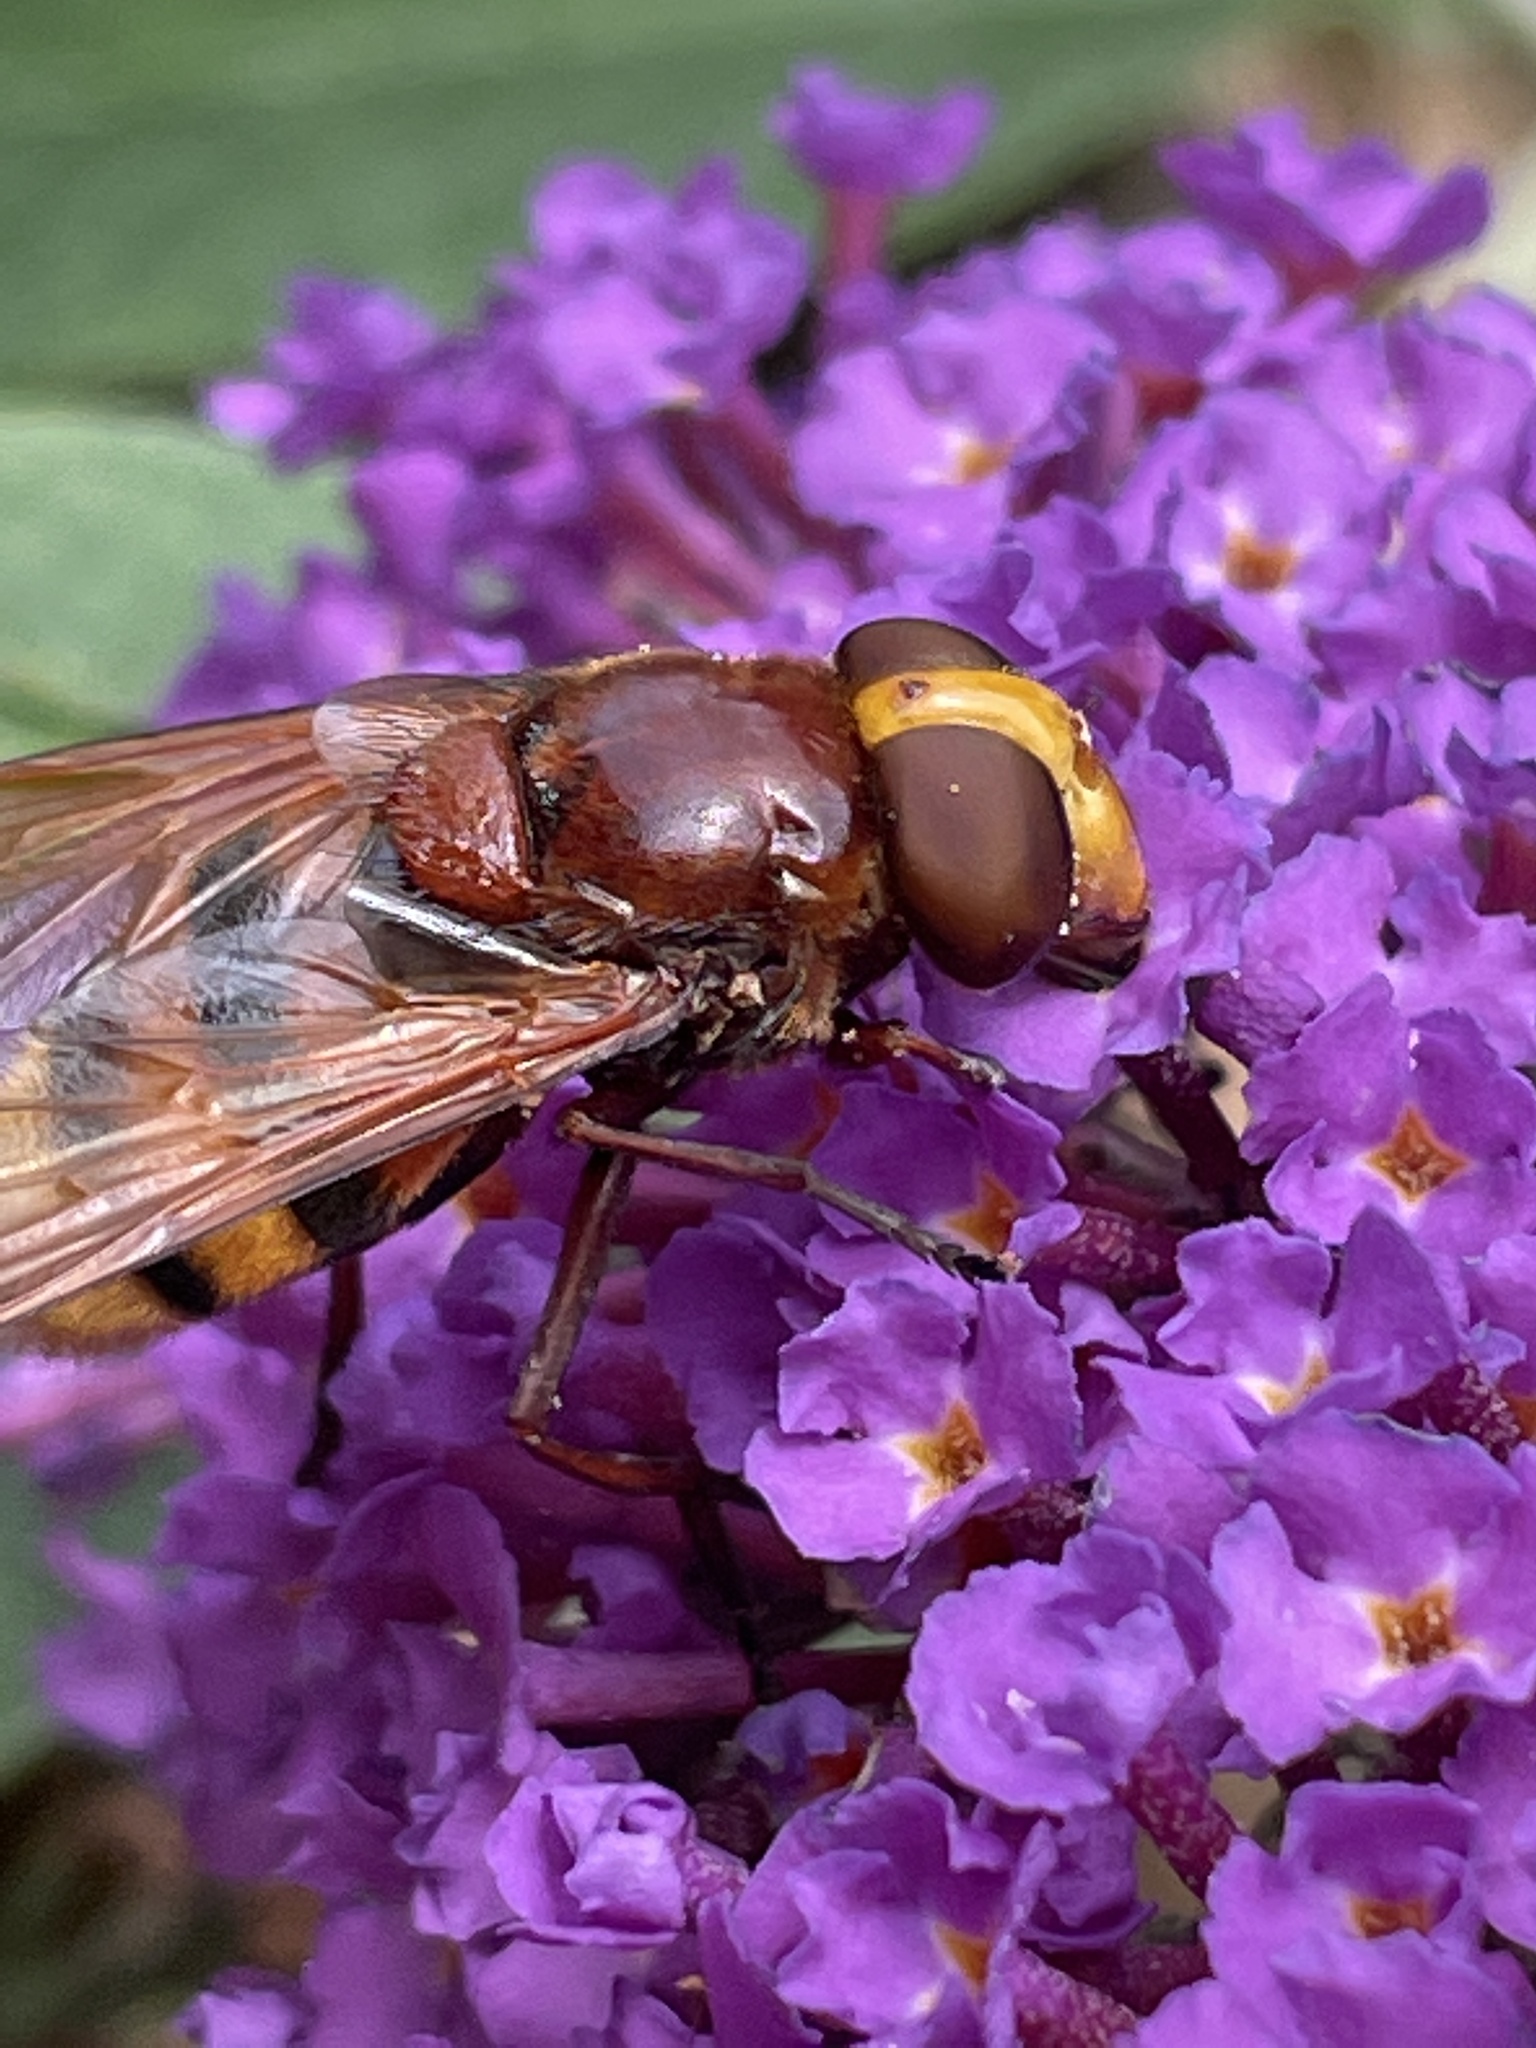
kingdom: Animalia
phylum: Arthropoda
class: Insecta
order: Diptera
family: Syrphidae
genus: Volucella
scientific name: Volucella zonaria
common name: Hornet hoverfly
